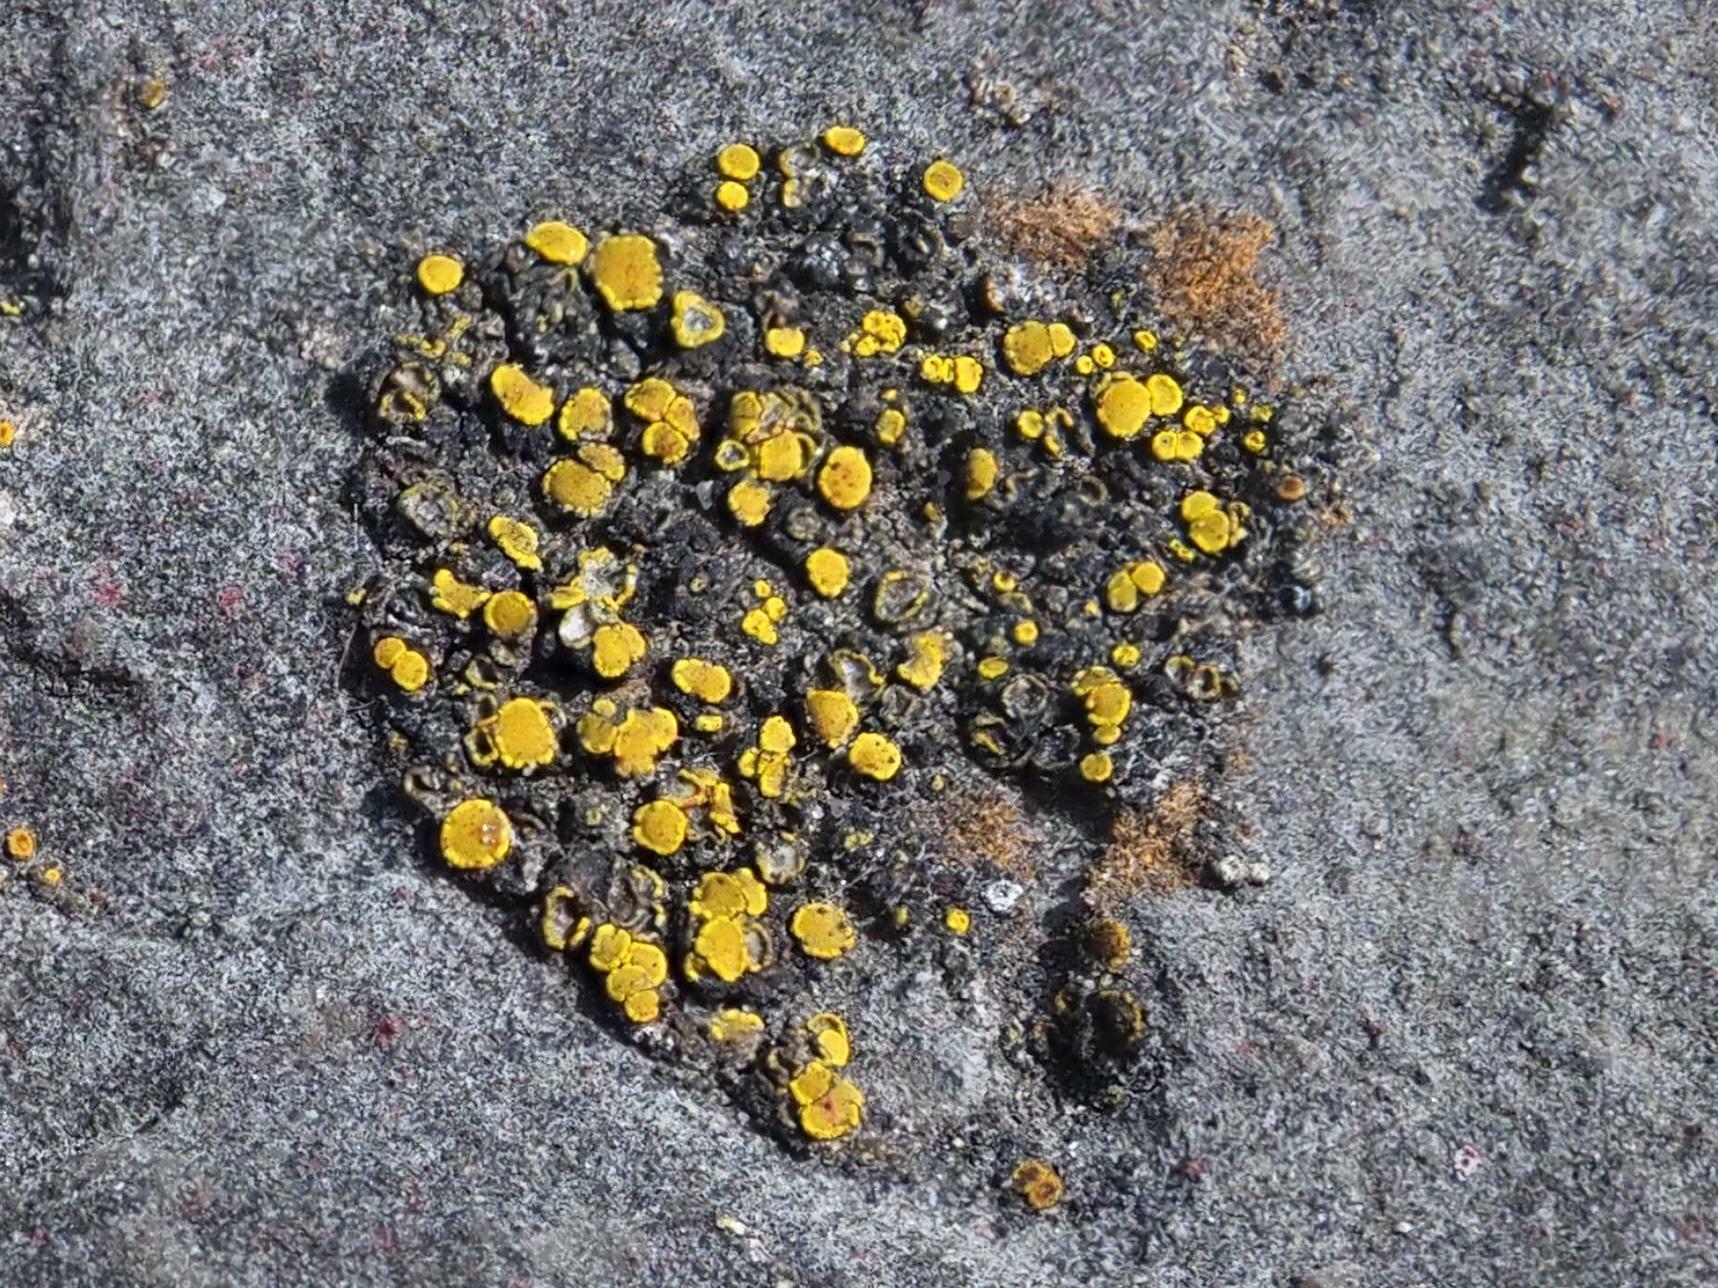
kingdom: Fungi
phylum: Ascomycota
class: Candelariomycetes
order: Candelariales
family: Candelariaceae
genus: Candelariella
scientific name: Candelariella aurella
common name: Hidden goldspeck lichen
